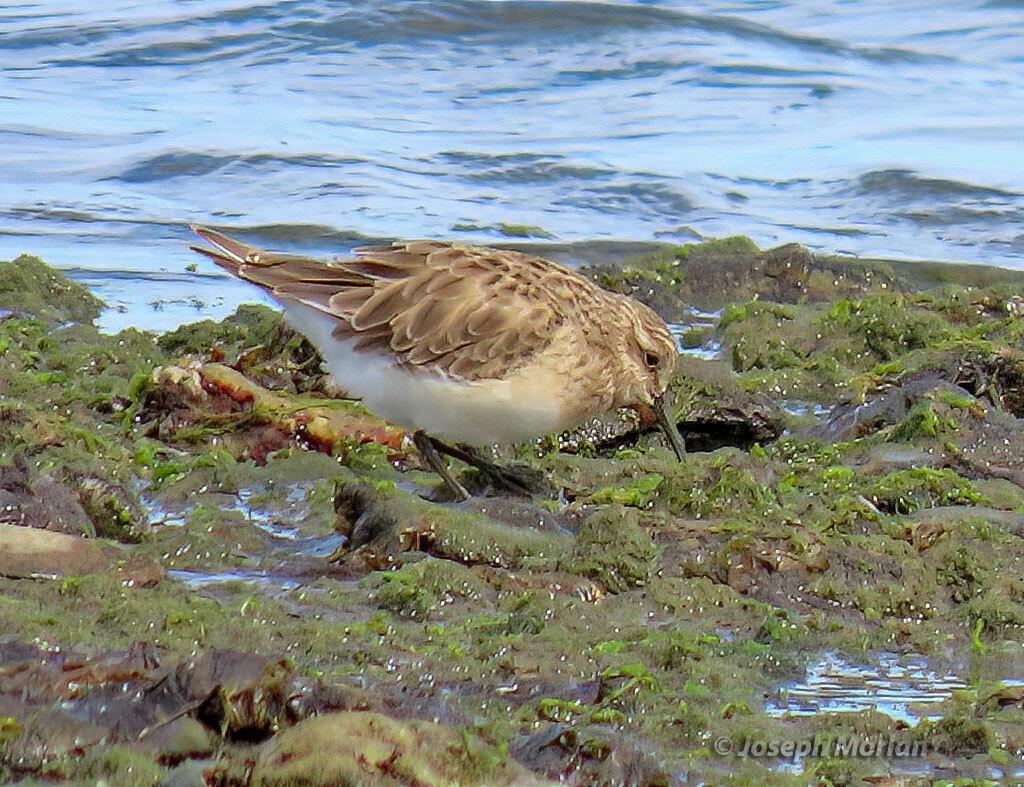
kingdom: Animalia
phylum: Chordata
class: Aves
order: Charadriiformes
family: Scolopacidae
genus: Calidris
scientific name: Calidris bairdii
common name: Baird's sandpiper
